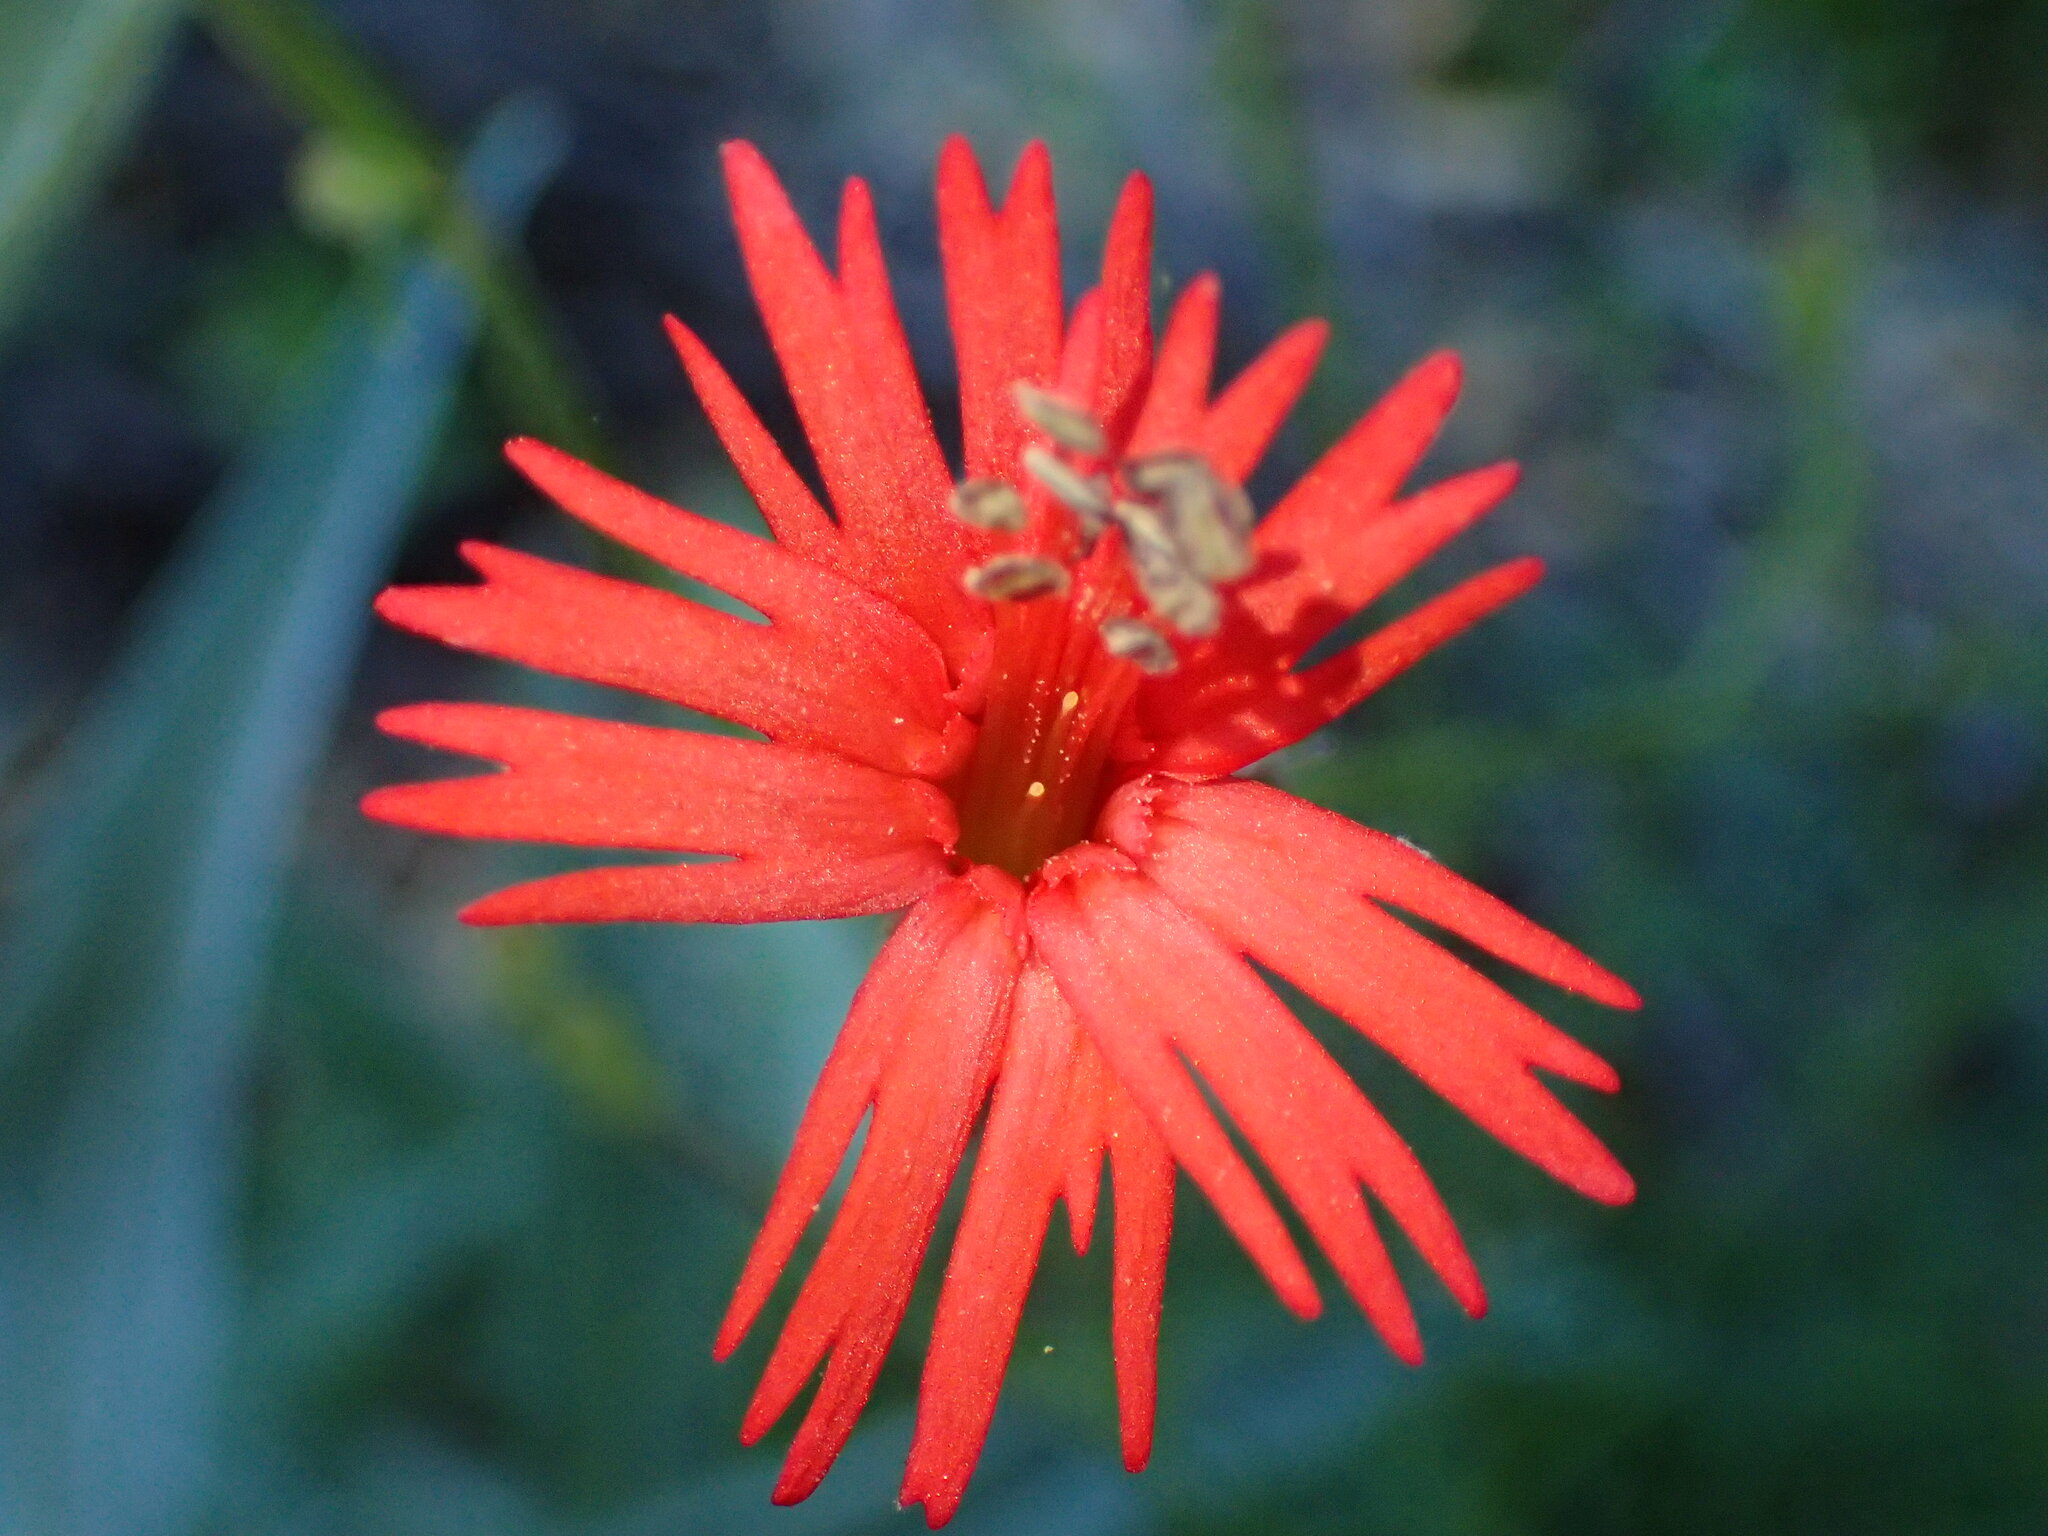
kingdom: Plantae
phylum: Tracheophyta
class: Magnoliopsida
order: Caryophyllales
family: Caryophyllaceae
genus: Silene
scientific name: Silene laciniata
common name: Indian-pink
